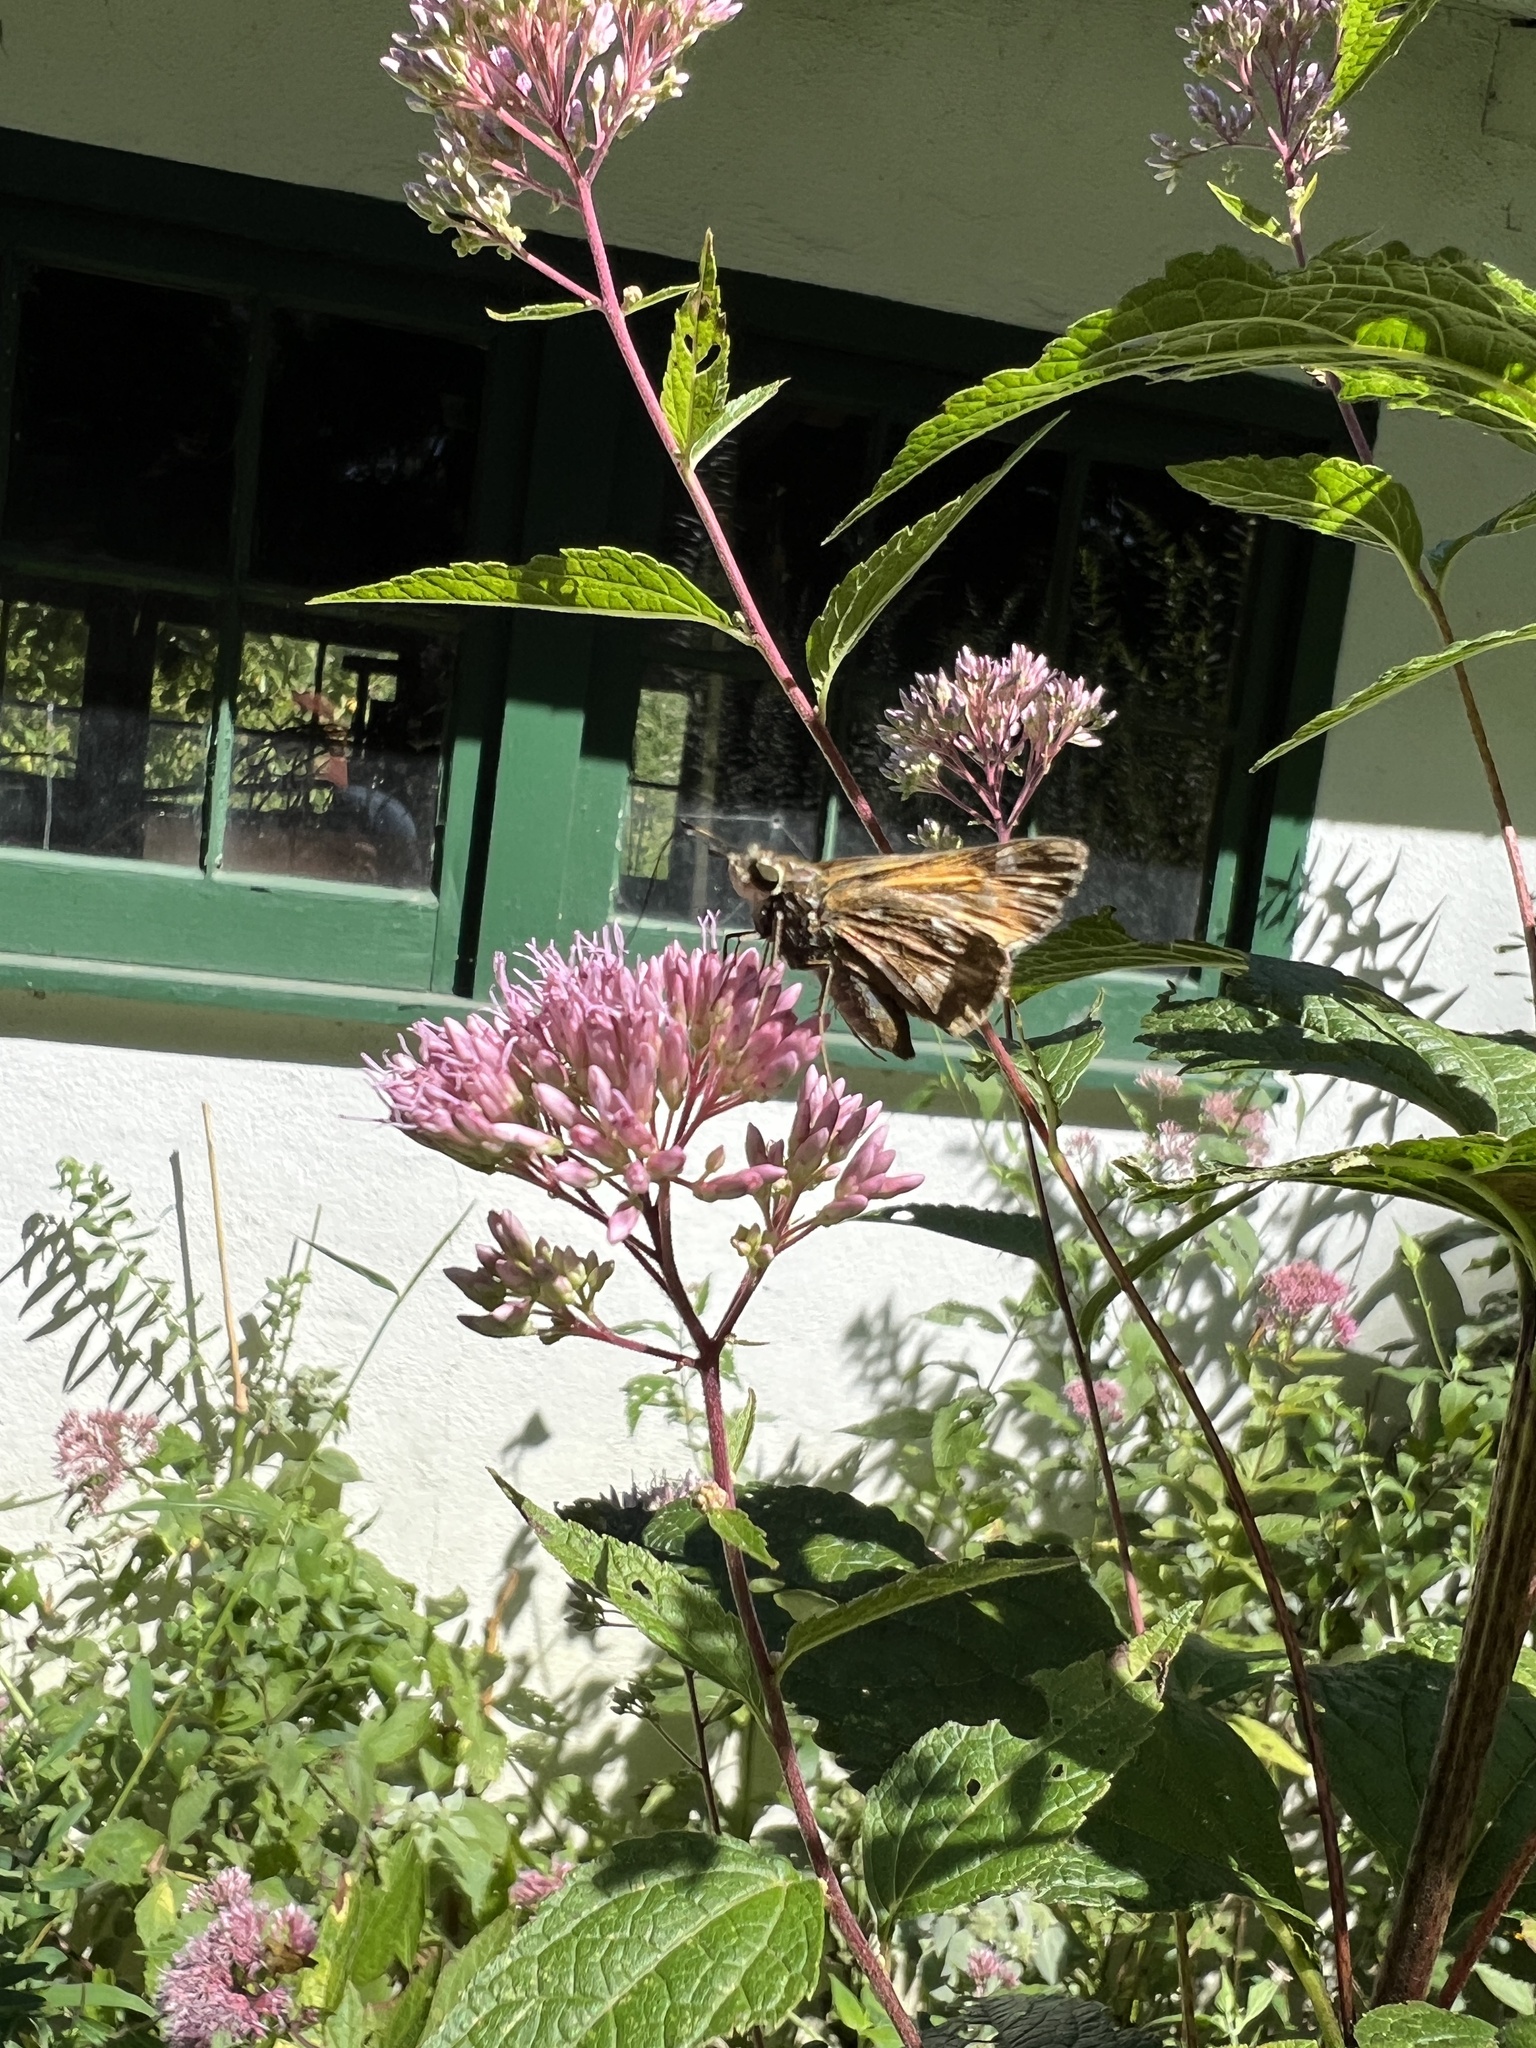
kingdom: Animalia
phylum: Arthropoda
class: Insecta
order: Lepidoptera
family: Hesperiidae
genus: Atalopedes
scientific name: Atalopedes
